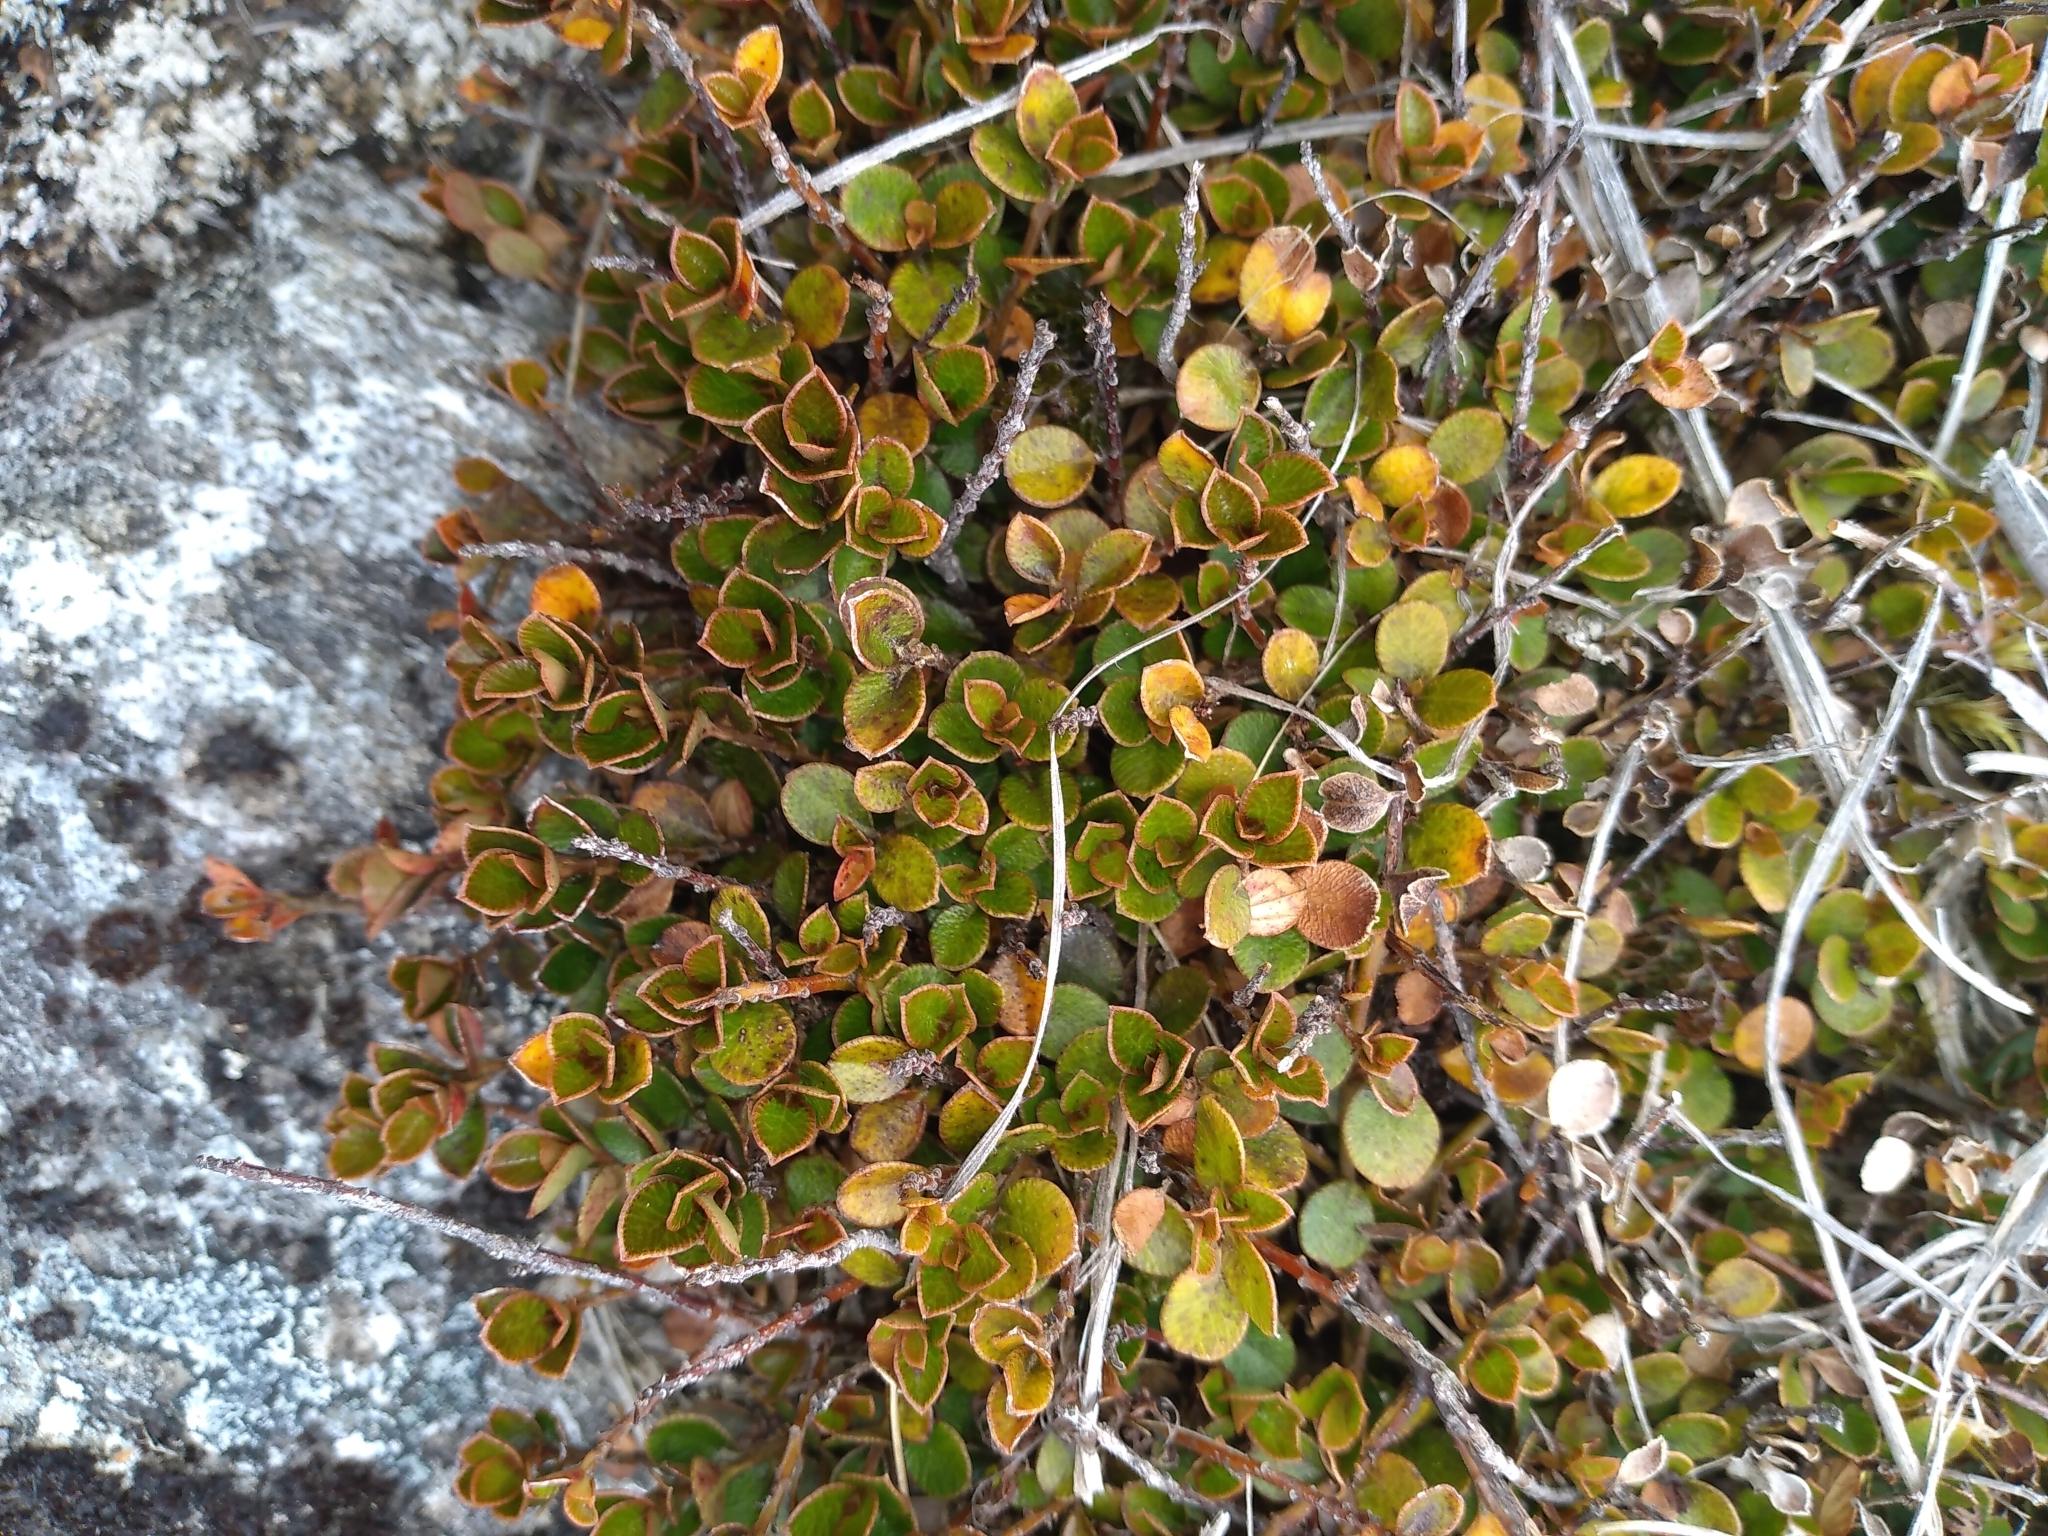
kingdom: Plantae
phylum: Tracheophyta
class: Magnoliopsida
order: Ericales
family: Primulaceae
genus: Myrsine
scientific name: Myrsine nummularia
